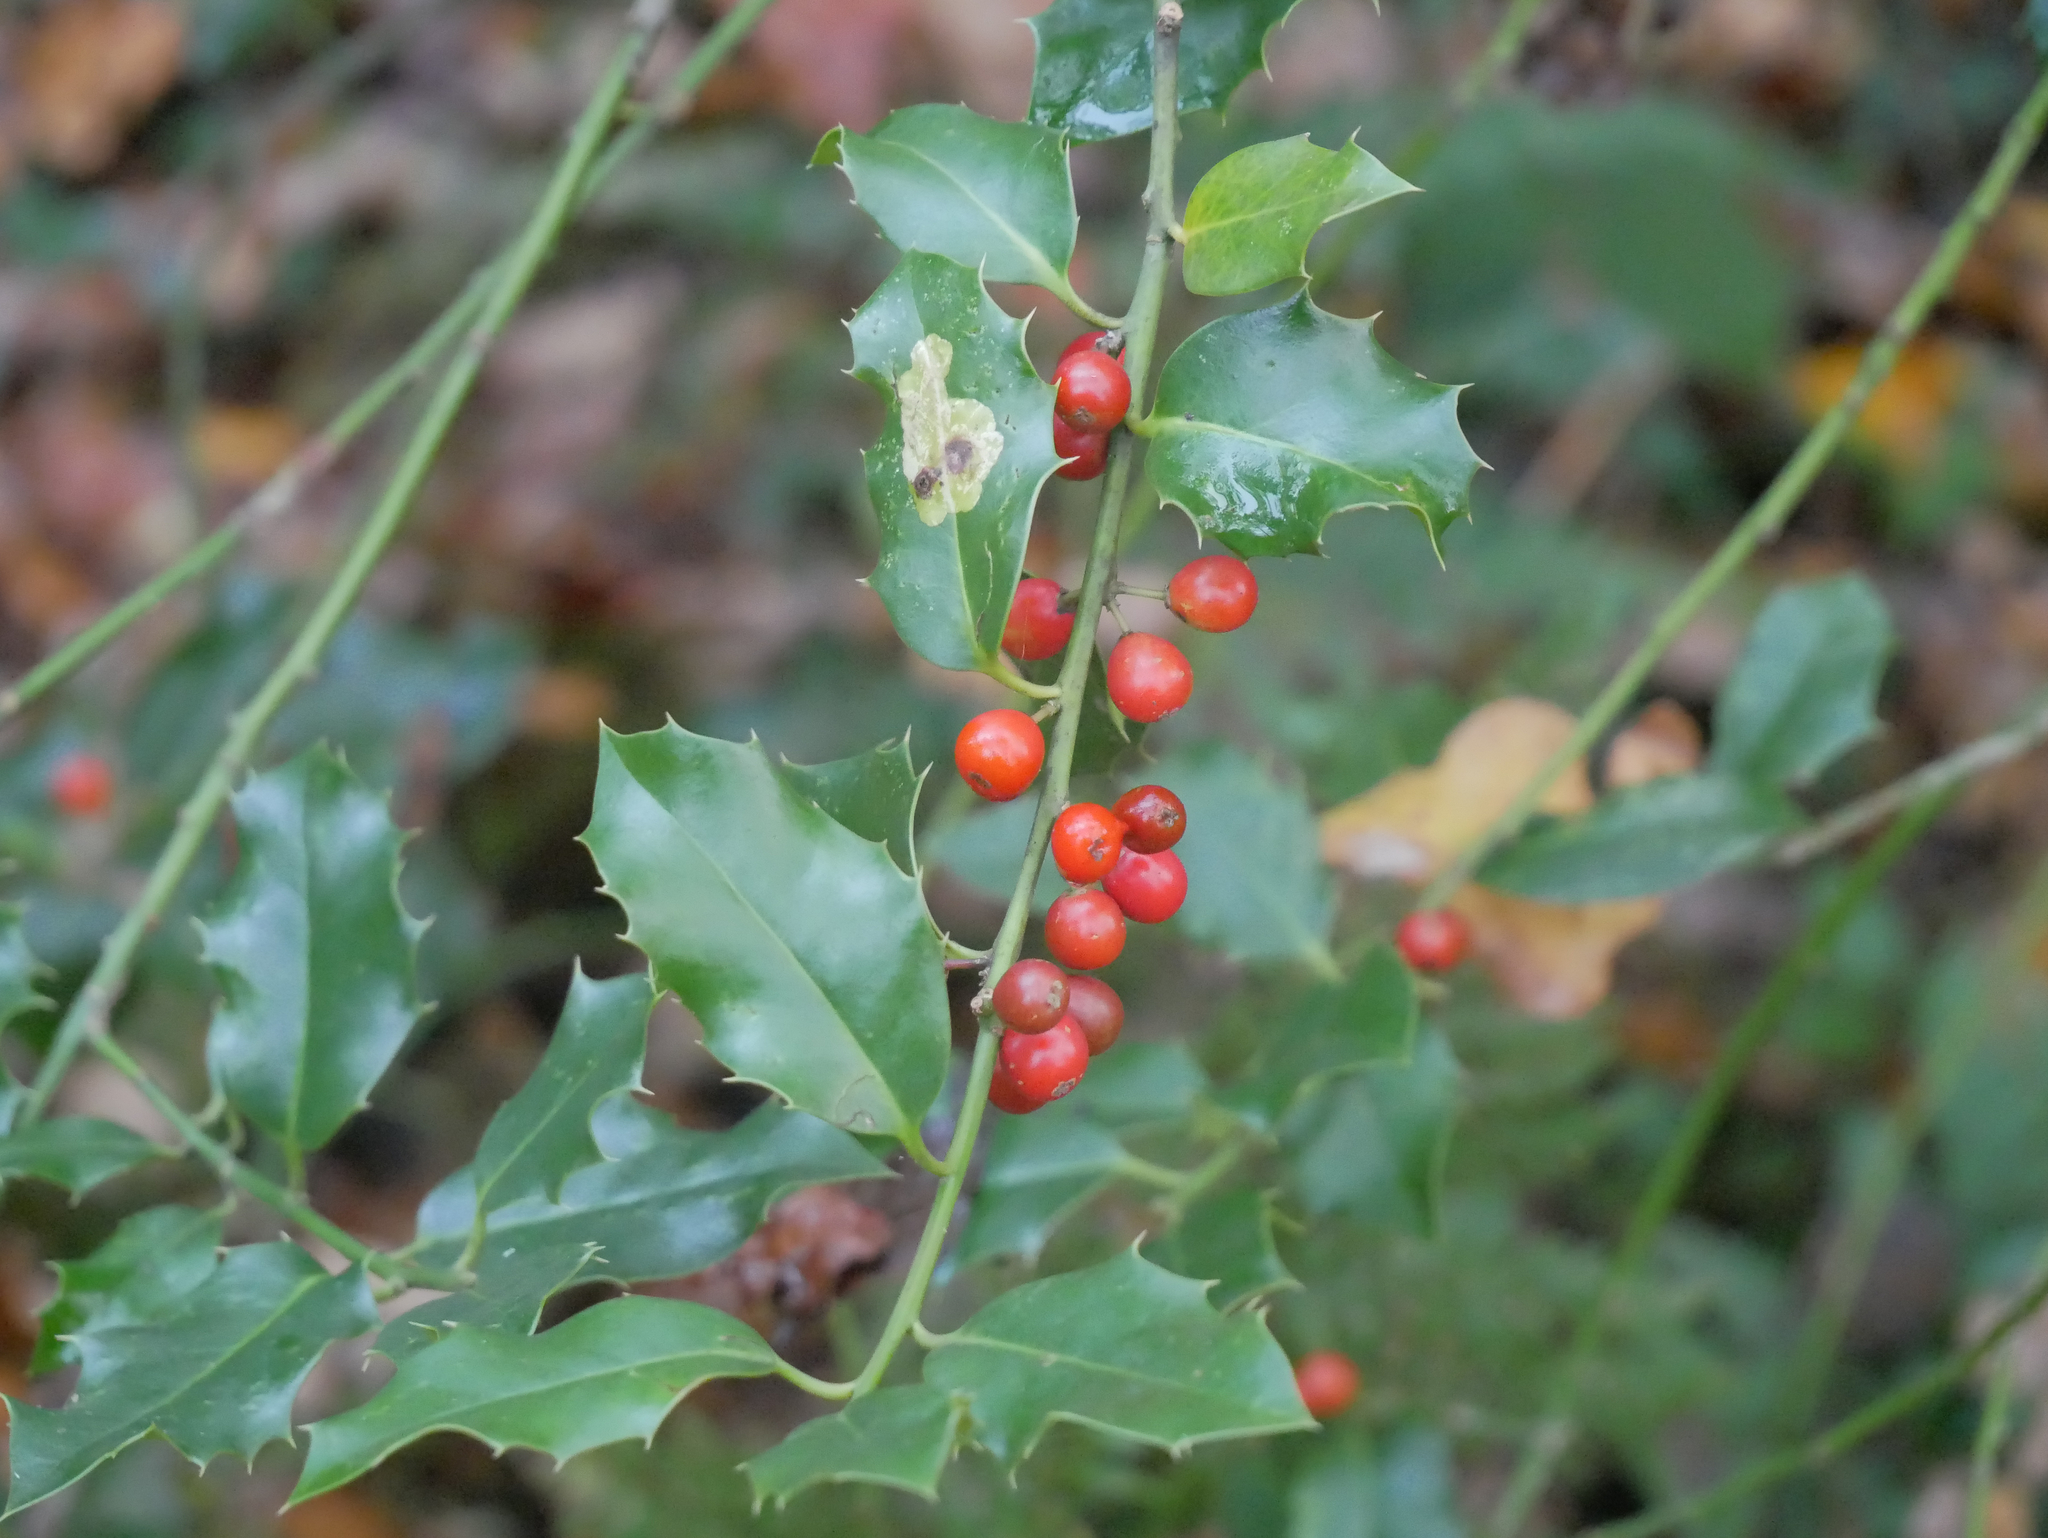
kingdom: Plantae
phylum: Tracheophyta
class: Magnoliopsida
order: Aquifoliales
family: Aquifoliaceae
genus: Ilex
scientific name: Ilex aquifolium
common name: English holly
